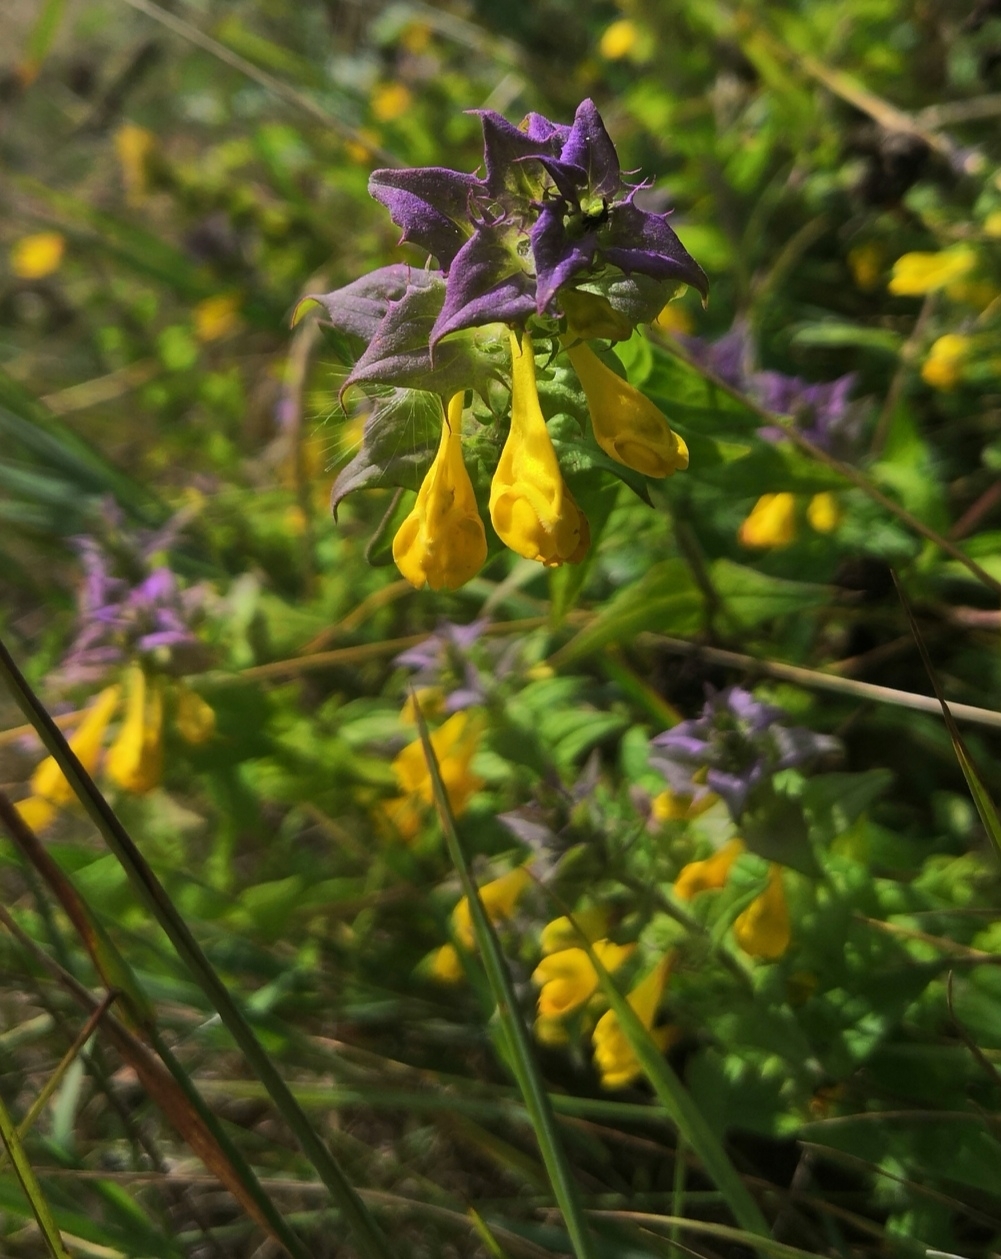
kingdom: Plantae
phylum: Tracheophyta
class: Magnoliopsida
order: Lamiales
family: Orobanchaceae
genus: Melampyrum
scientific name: Melampyrum nemorosum
